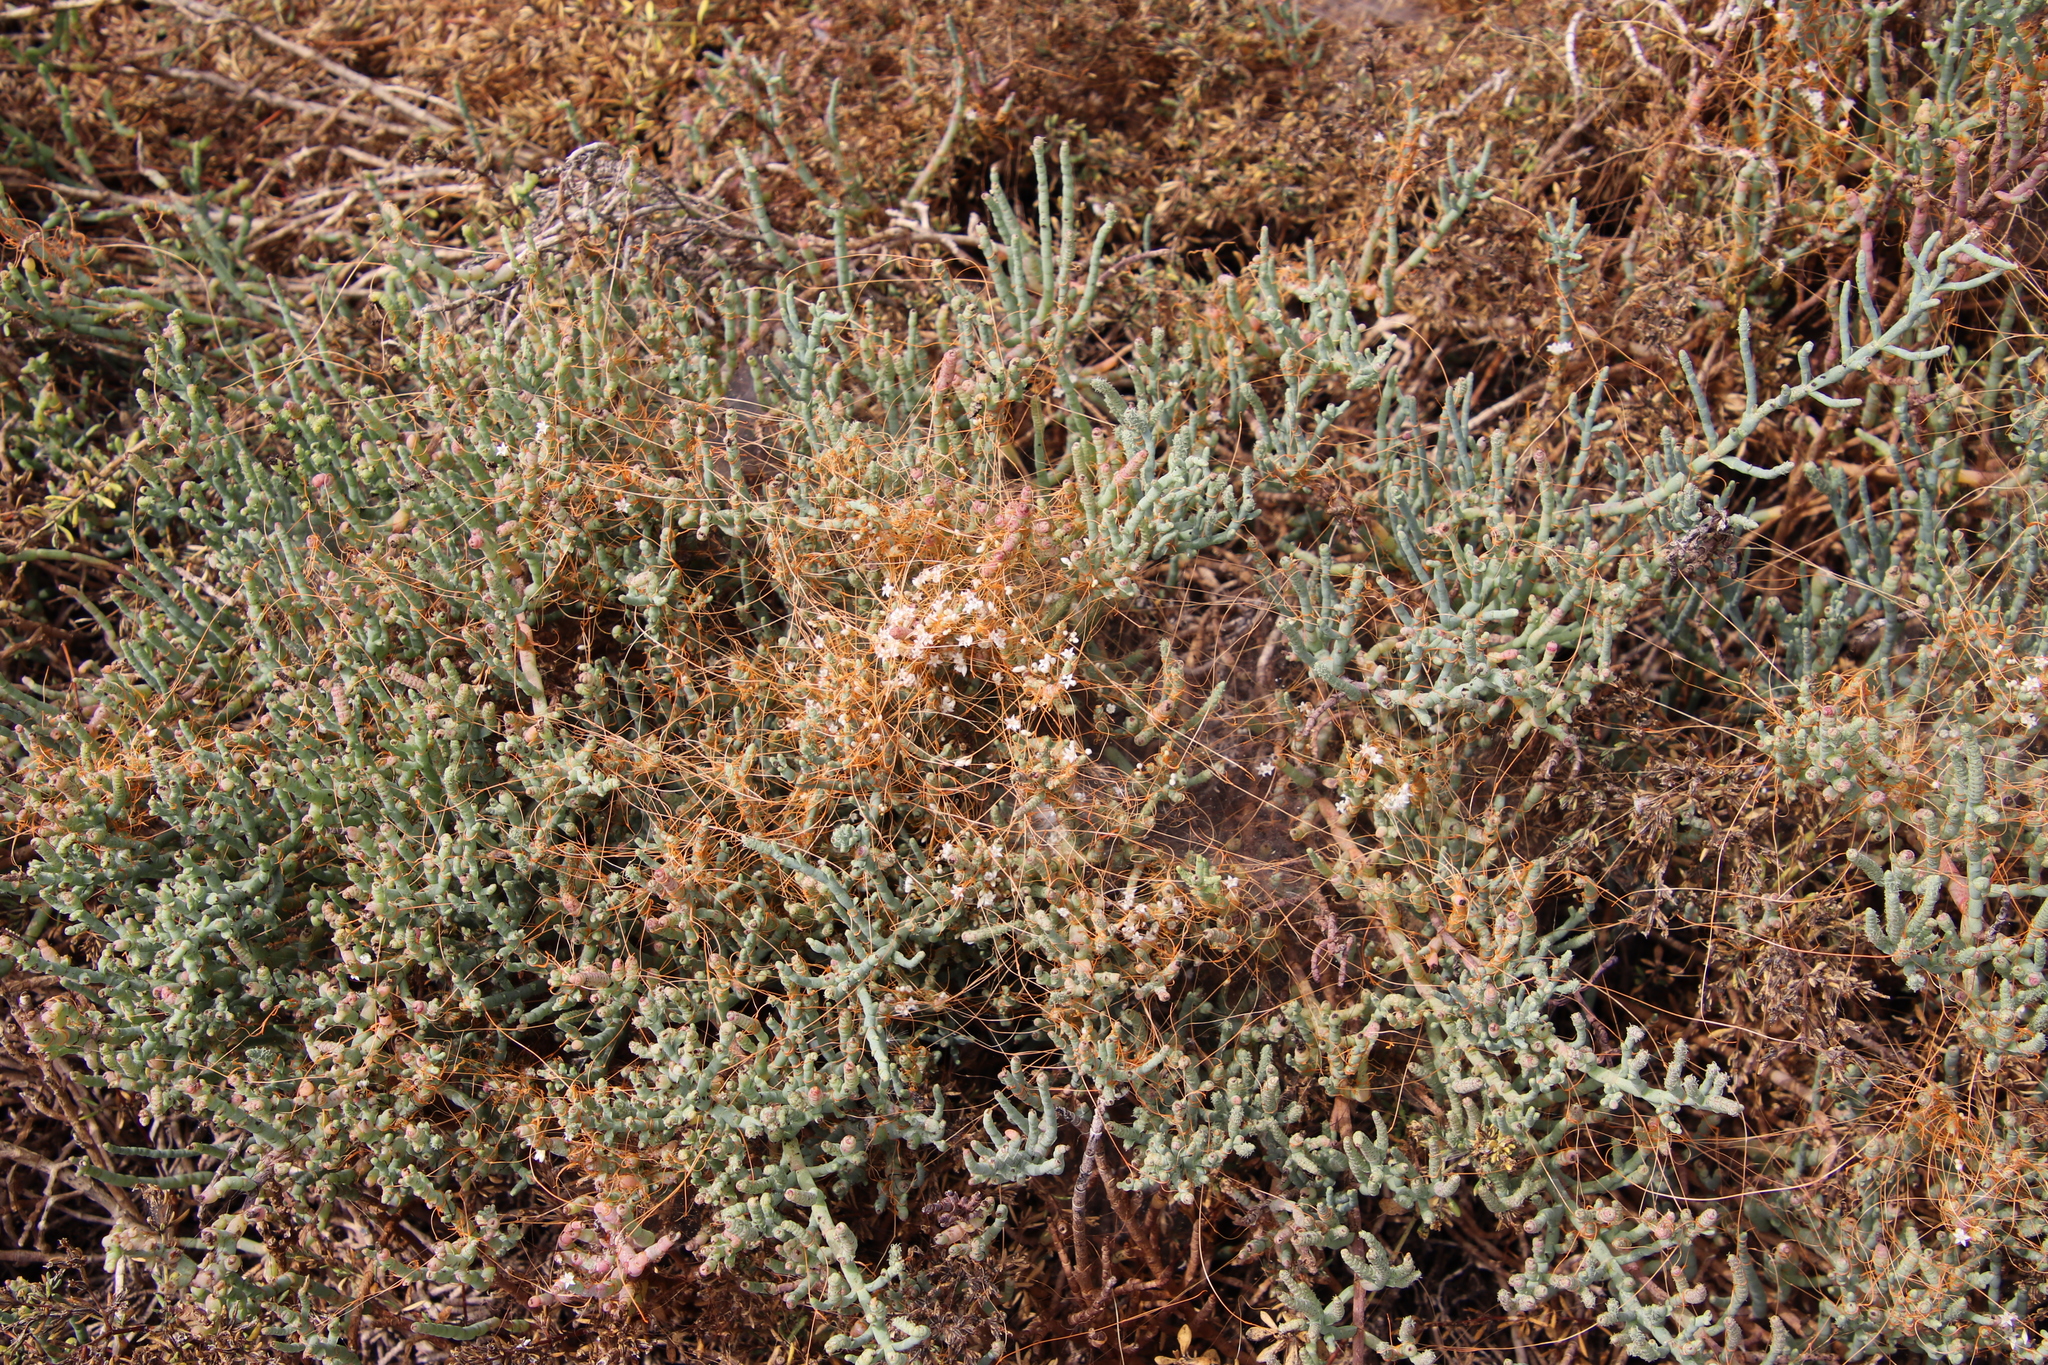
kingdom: Plantae
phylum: Tracheophyta
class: Magnoliopsida
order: Solanales
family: Convolvulaceae
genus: Cuscuta
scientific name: Cuscuta pacifica
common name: Large saltmarsh dodder
